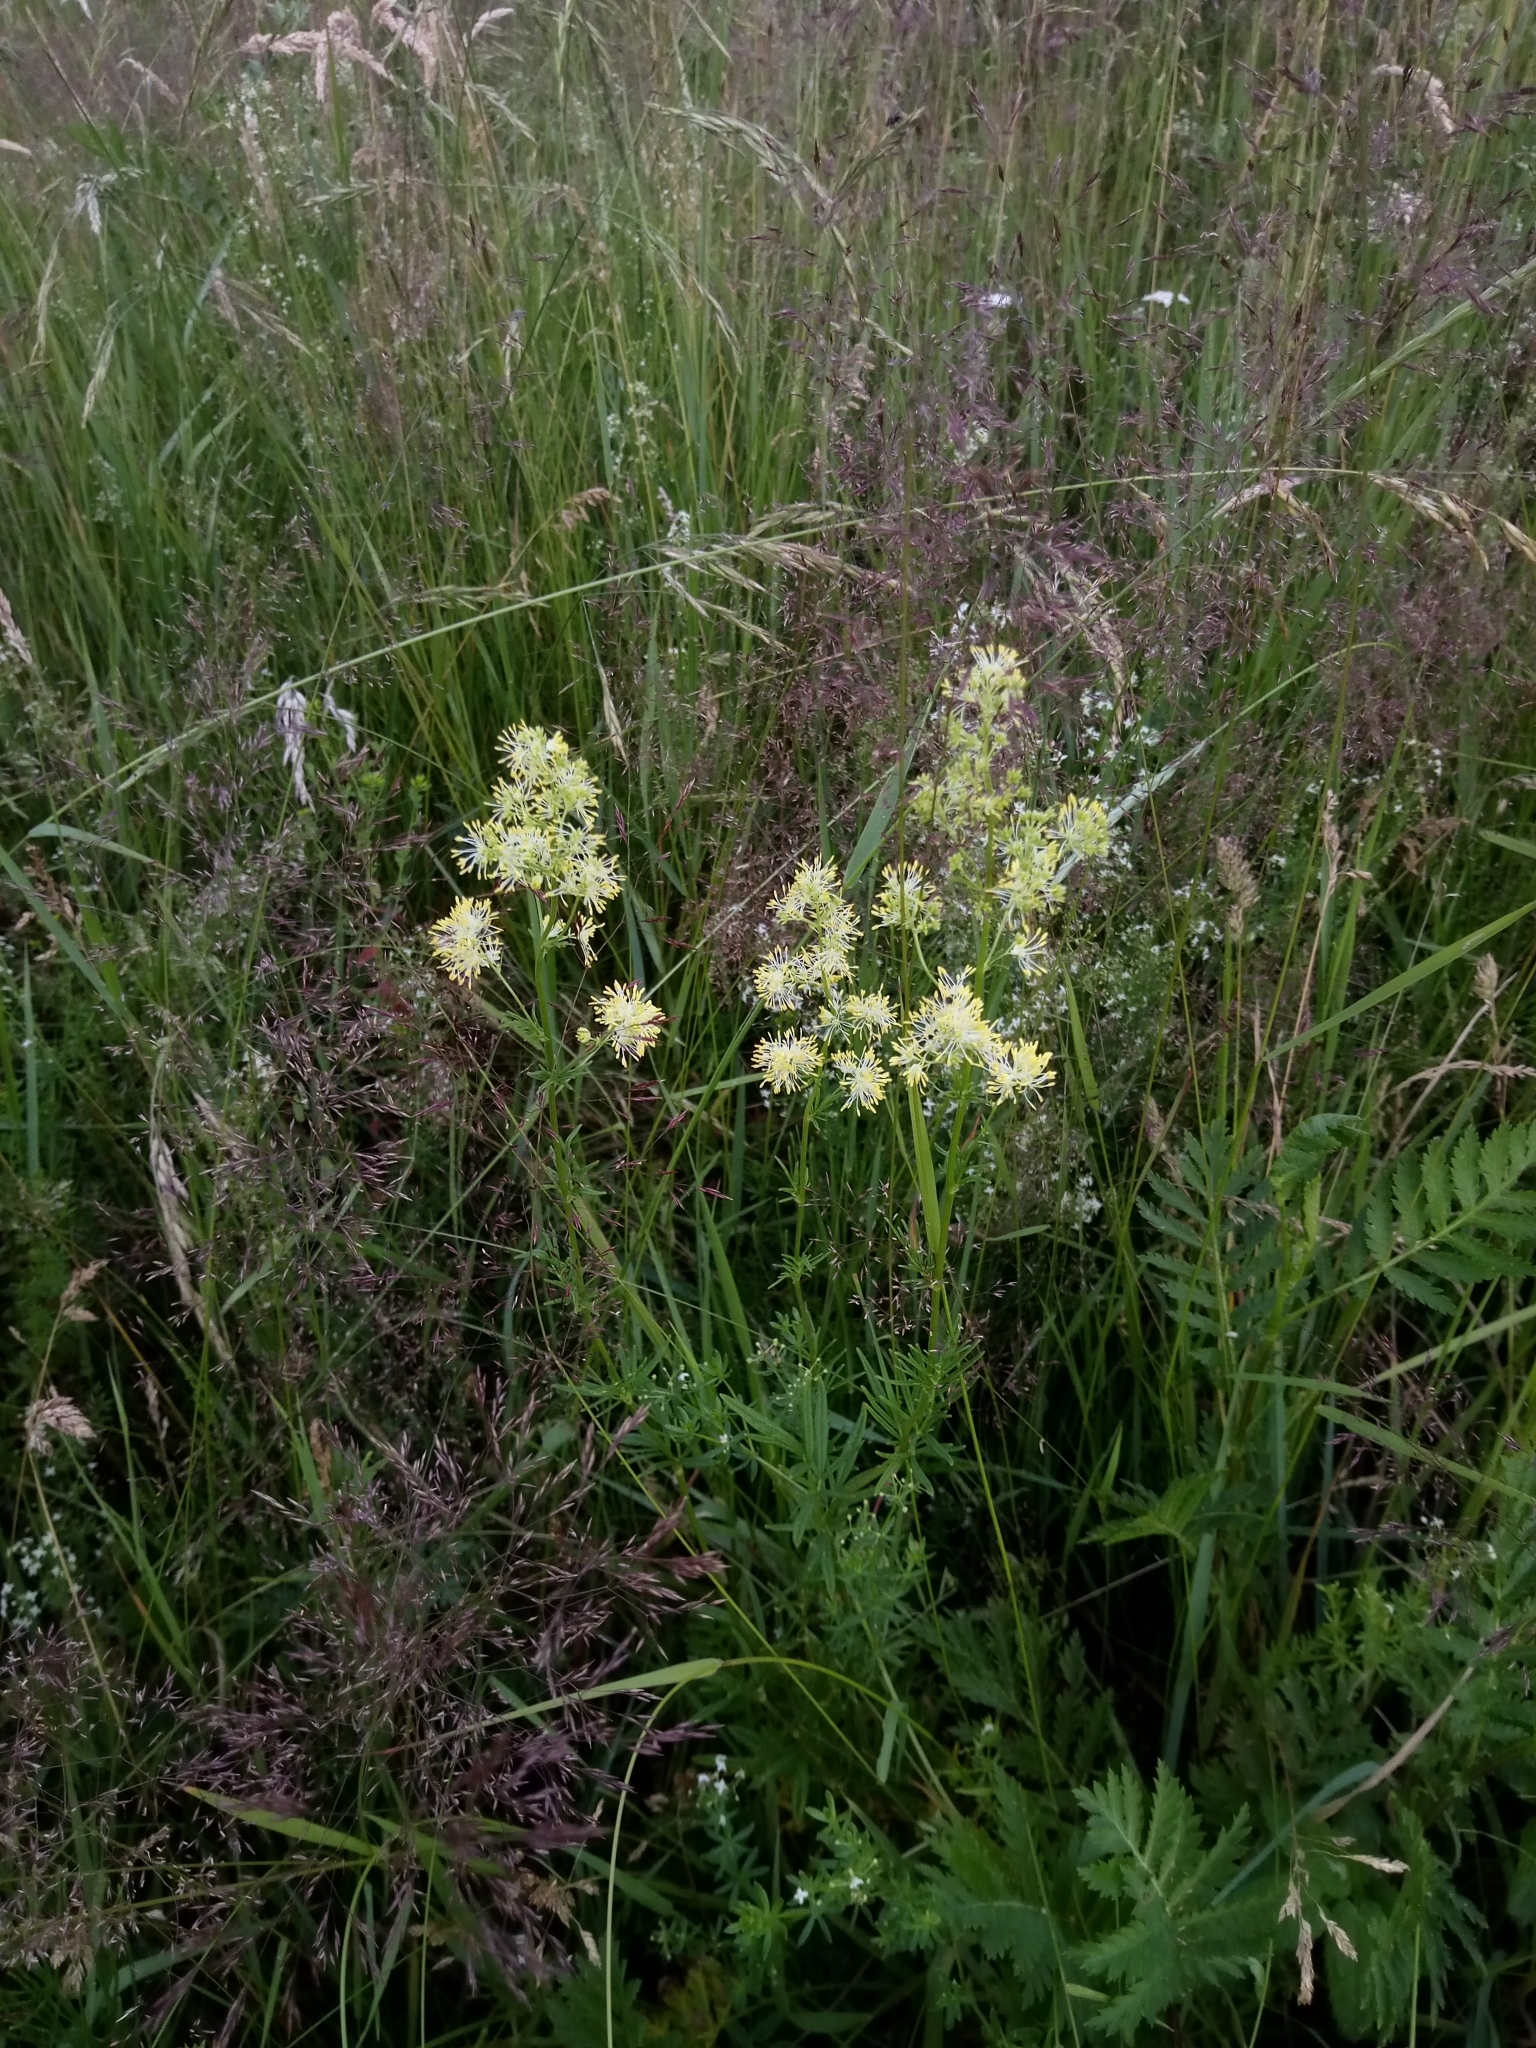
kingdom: Plantae
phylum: Tracheophyta
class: Magnoliopsida
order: Ranunculales
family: Ranunculaceae
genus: Thalictrum
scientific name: Thalictrum lucidum
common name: Shining meadow-rue
